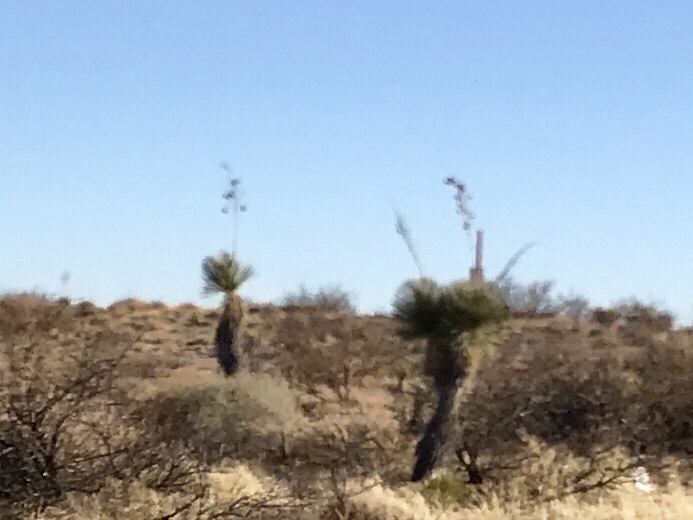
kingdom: Plantae
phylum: Tracheophyta
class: Liliopsida
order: Asparagales
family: Asparagaceae
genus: Yucca
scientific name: Yucca elata
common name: Palmella
